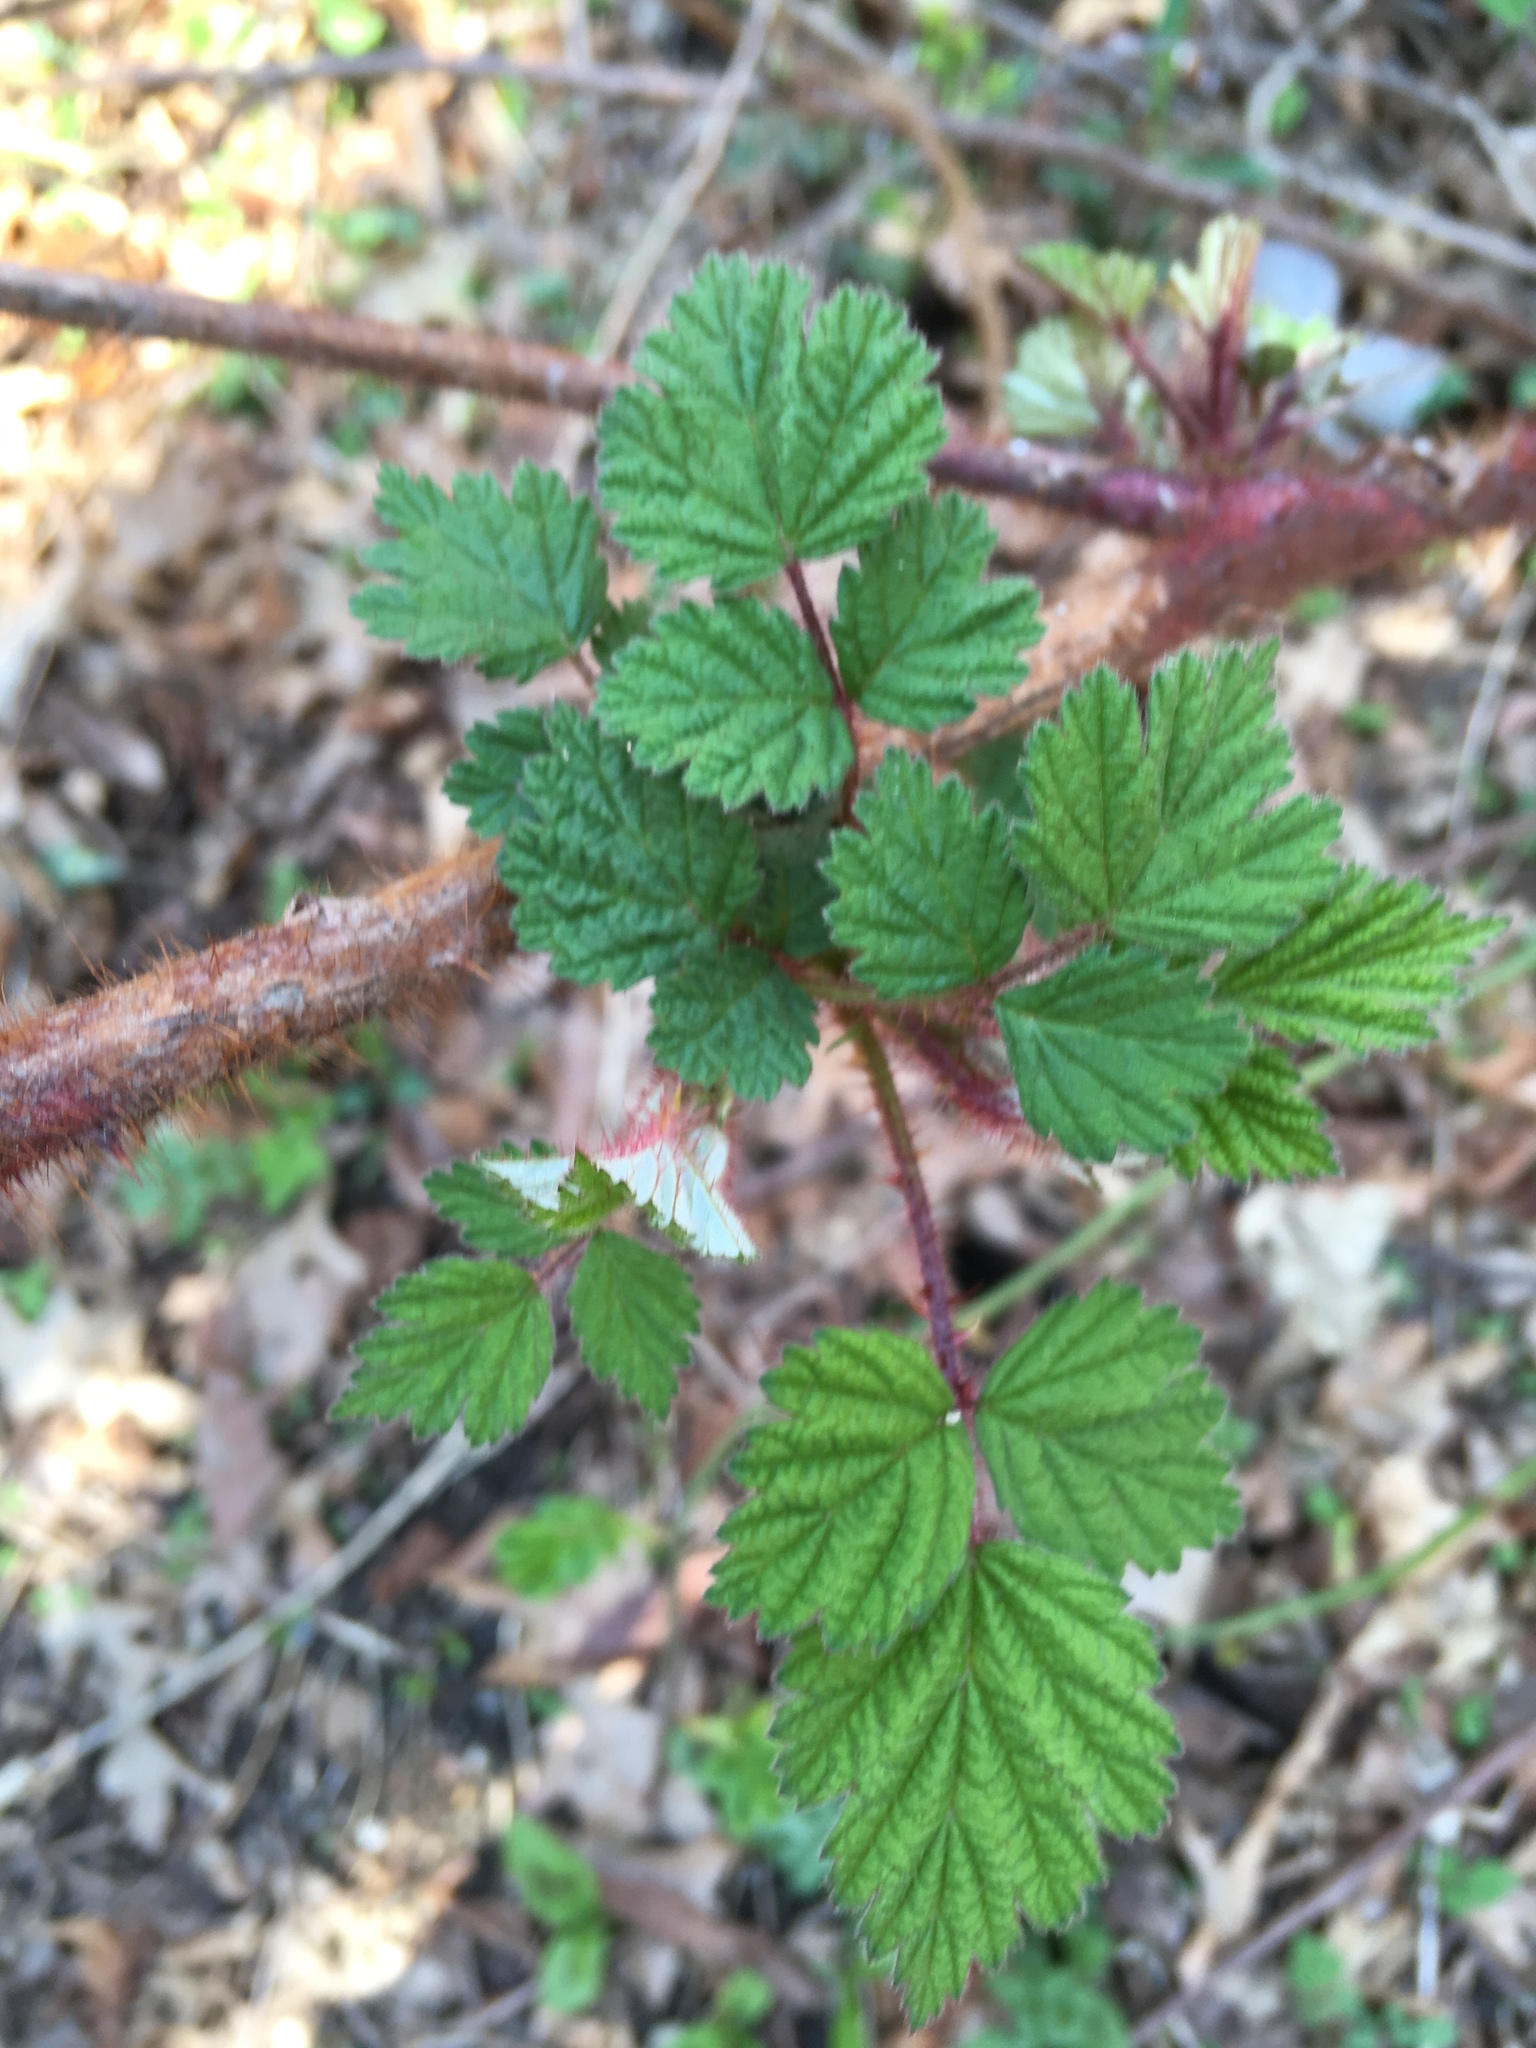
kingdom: Plantae
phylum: Tracheophyta
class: Magnoliopsida
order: Rosales
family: Rosaceae
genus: Rubus
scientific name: Rubus phoenicolasius
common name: Japanese wineberry
